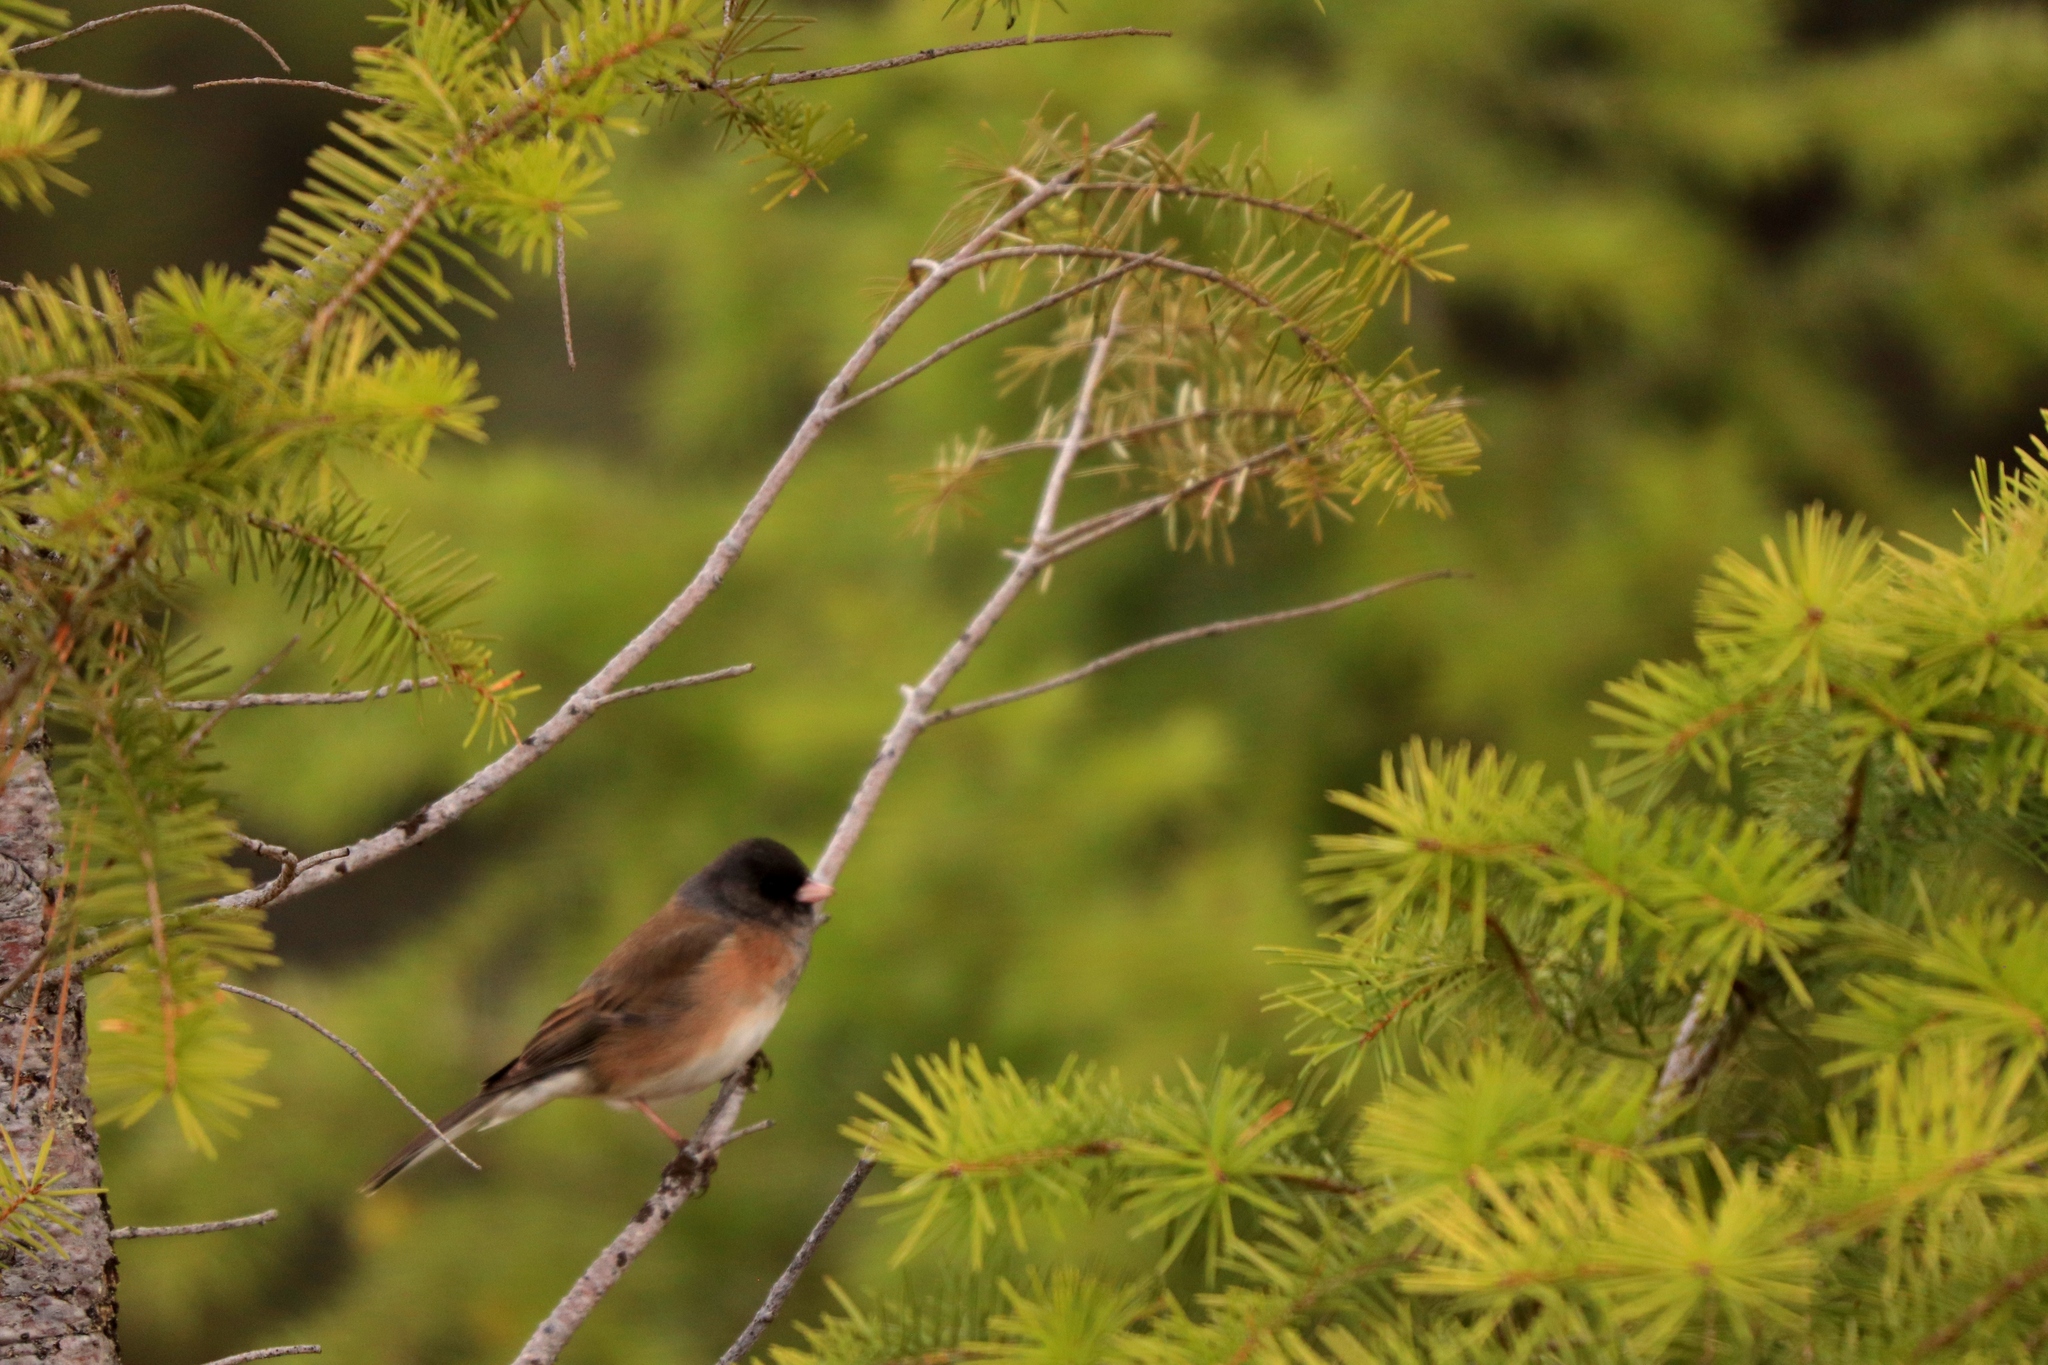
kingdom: Animalia
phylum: Chordata
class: Aves
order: Passeriformes
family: Passerellidae
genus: Junco
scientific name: Junco hyemalis
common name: Dark-eyed junco
